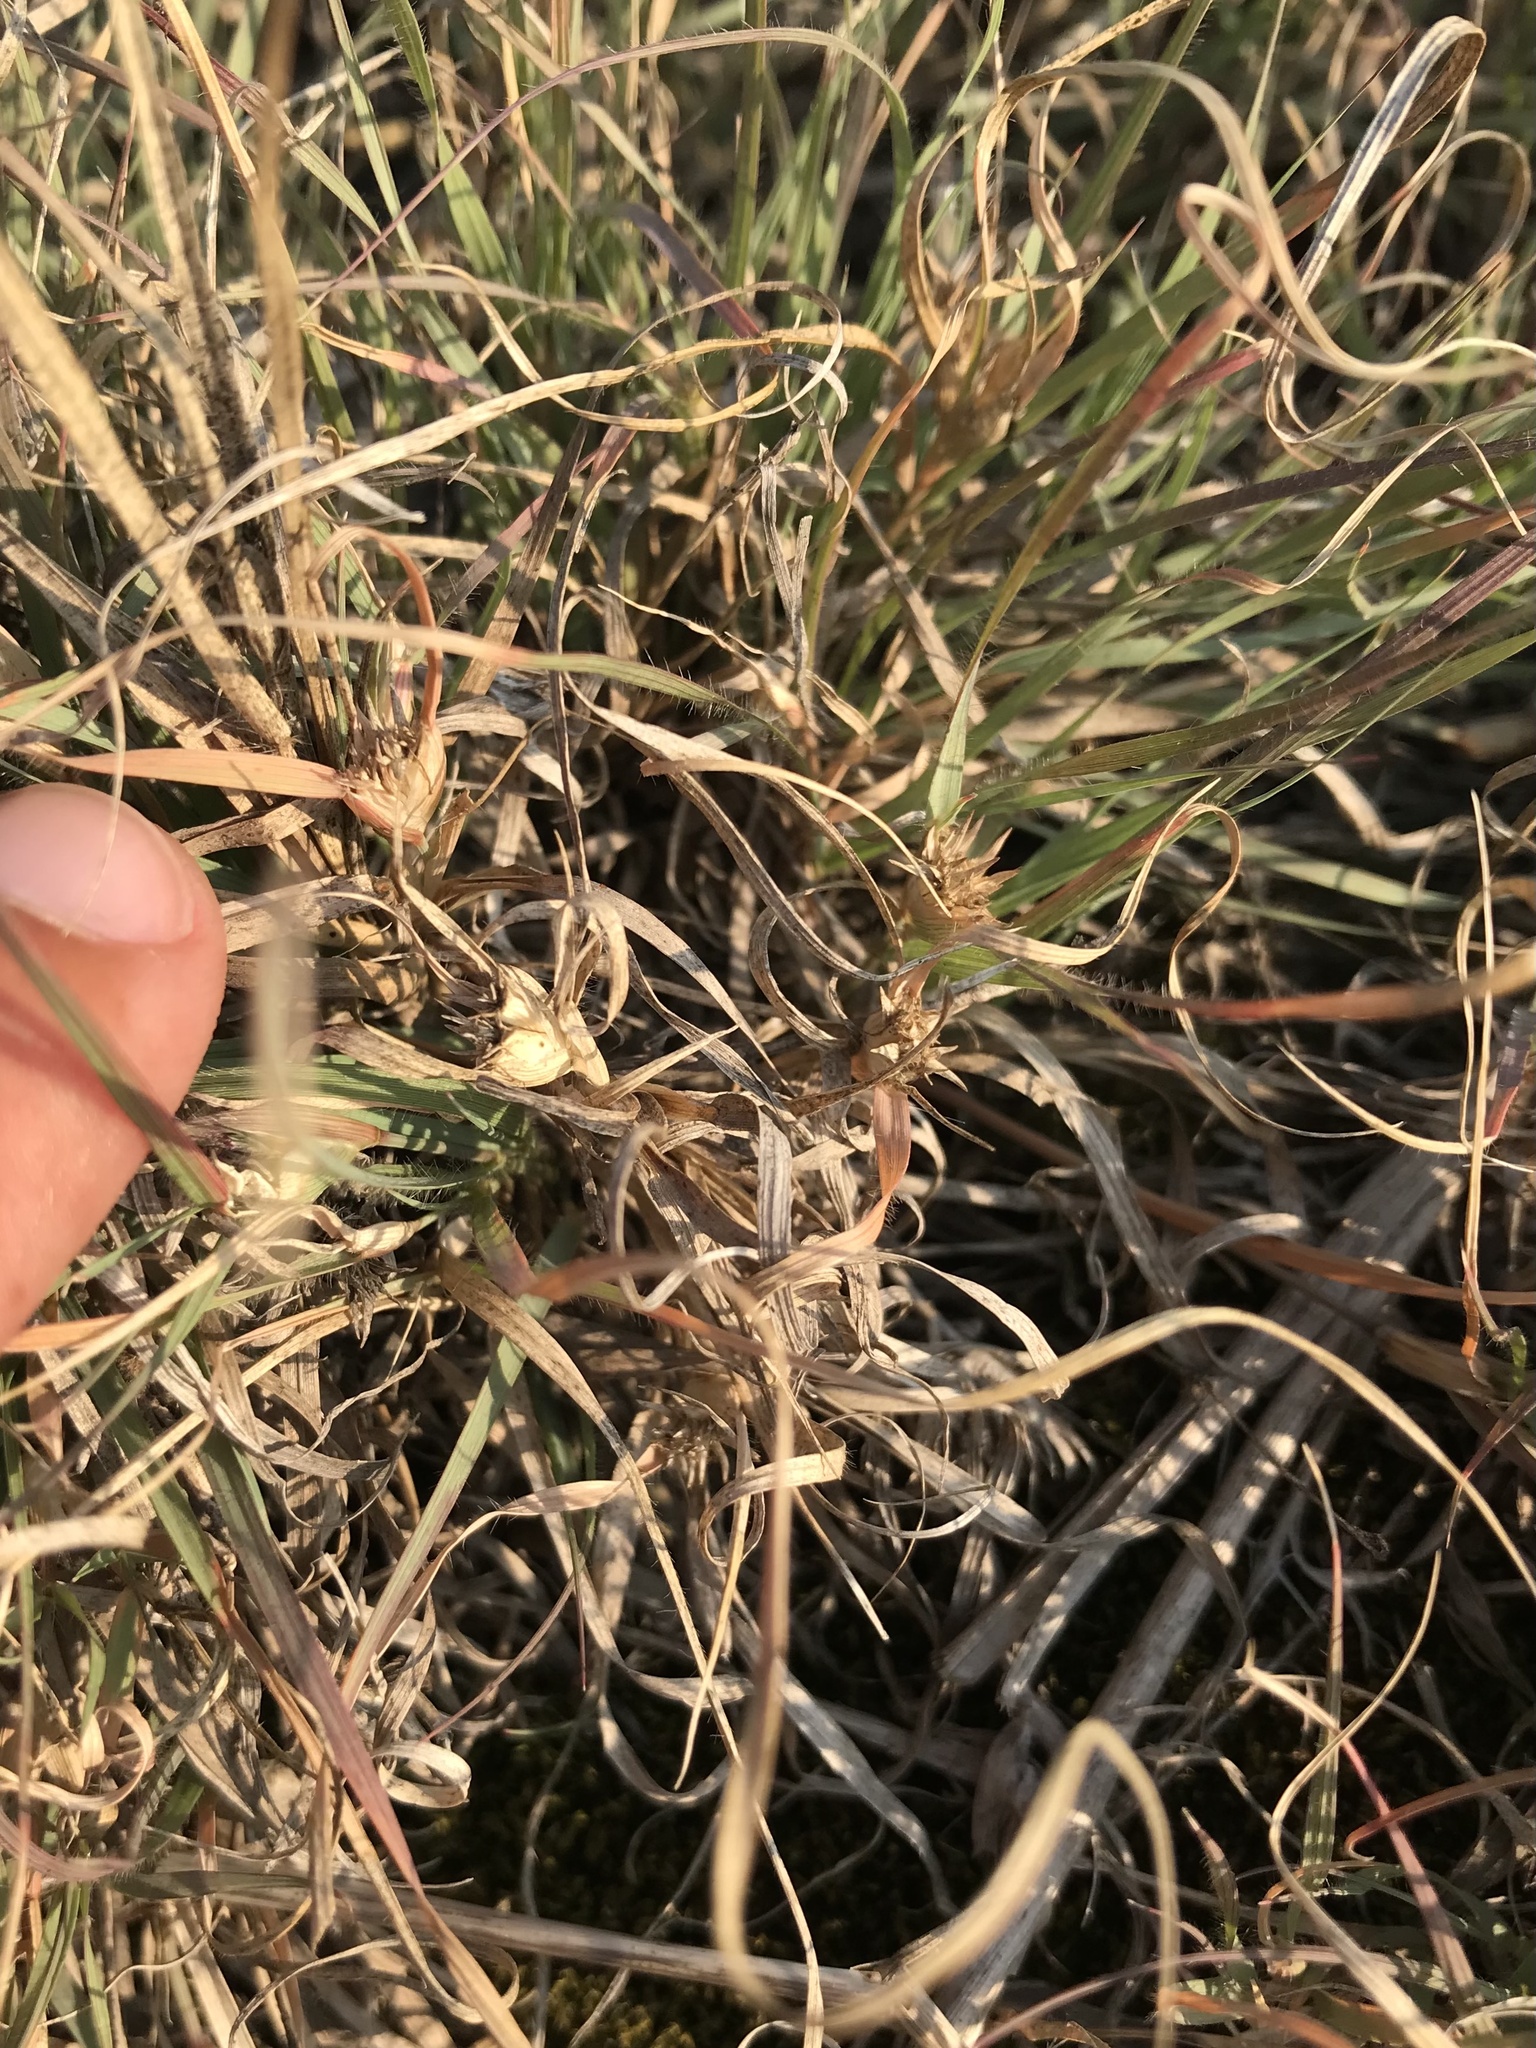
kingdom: Plantae
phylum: Tracheophyta
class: Liliopsida
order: Poales
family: Poaceae
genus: Bouteloua
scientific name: Bouteloua dactyloides
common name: Buffalo grass
